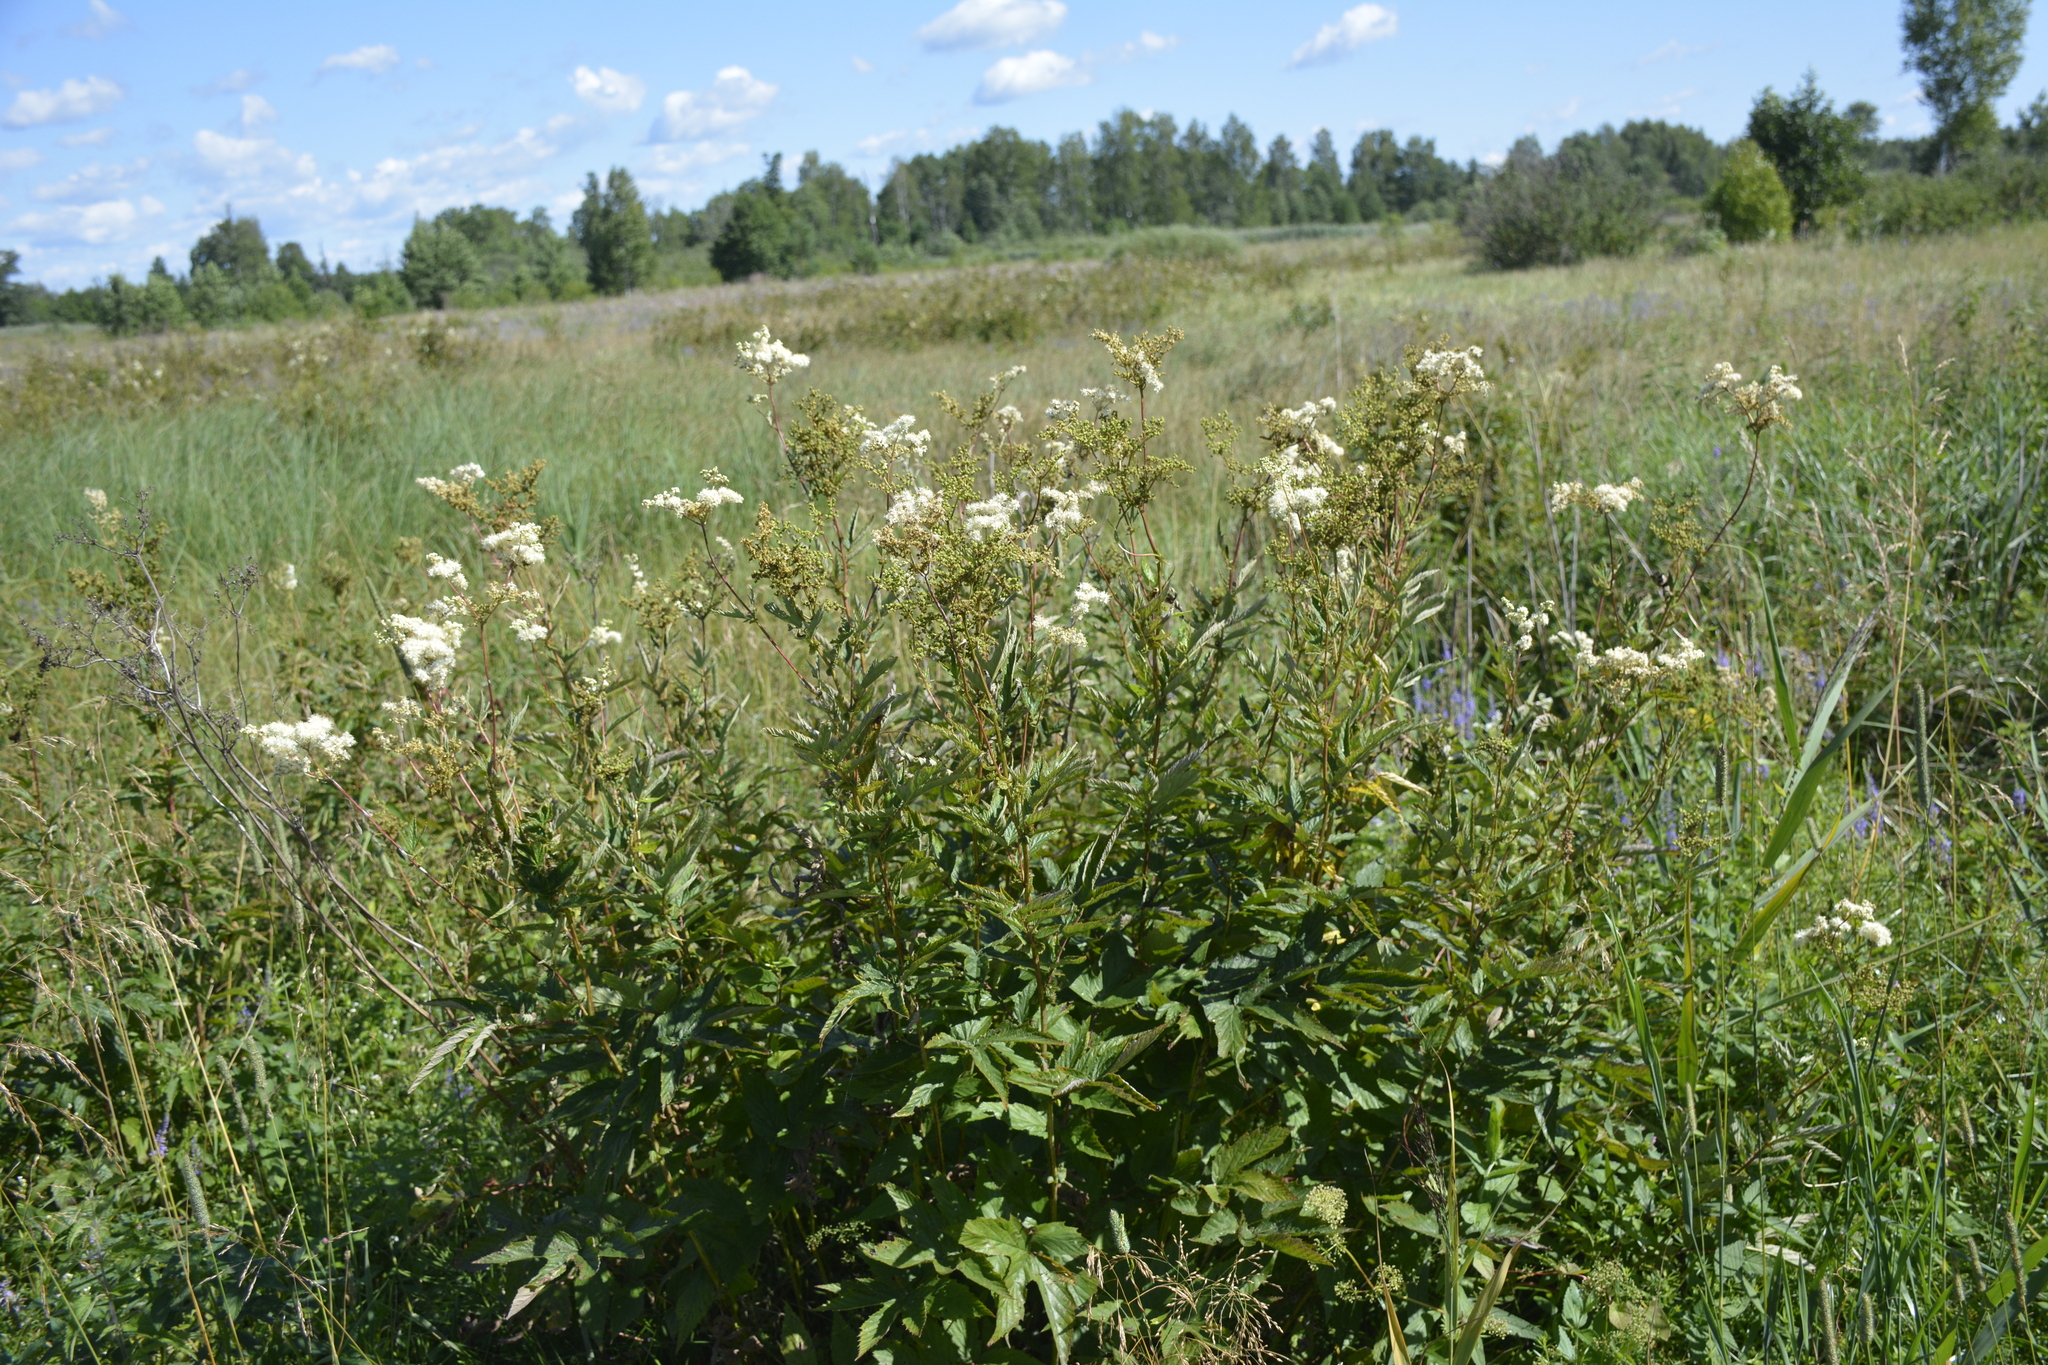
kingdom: Plantae
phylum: Tracheophyta
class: Magnoliopsida
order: Rosales
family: Rosaceae
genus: Filipendula
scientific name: Filipendula ulmaria
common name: Meadowsweet
